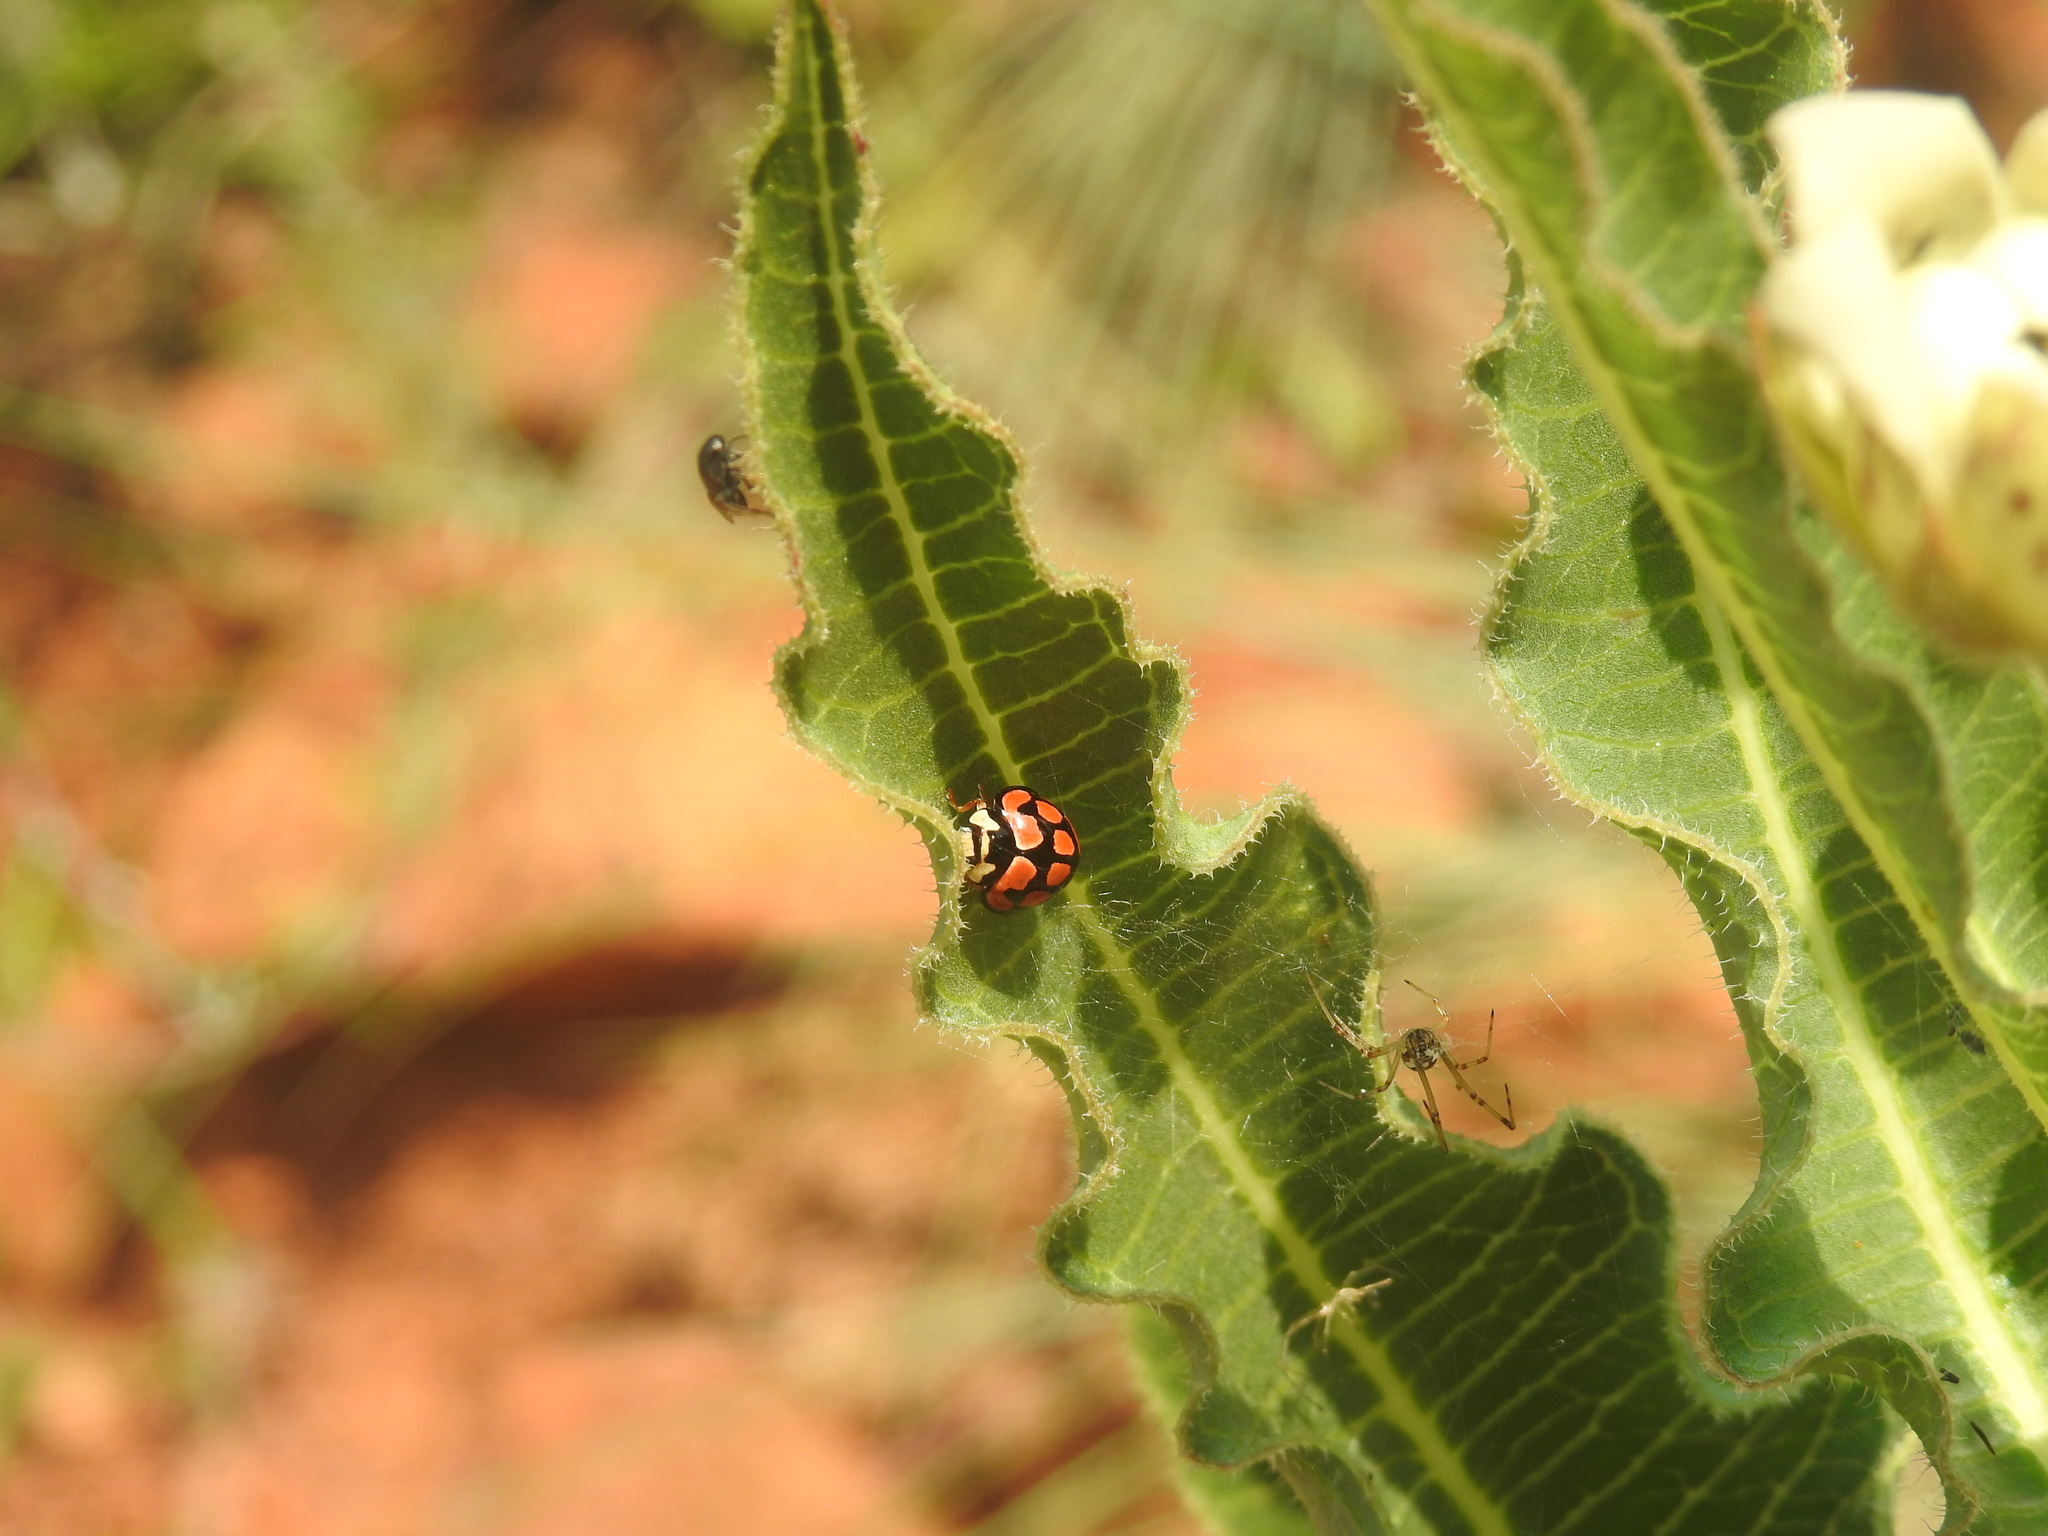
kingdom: Animalia
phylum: Arthropoda
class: Insecta
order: Coleoptera
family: Coccinellidae
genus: Cheilomenes
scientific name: Cheilomenes lunata
